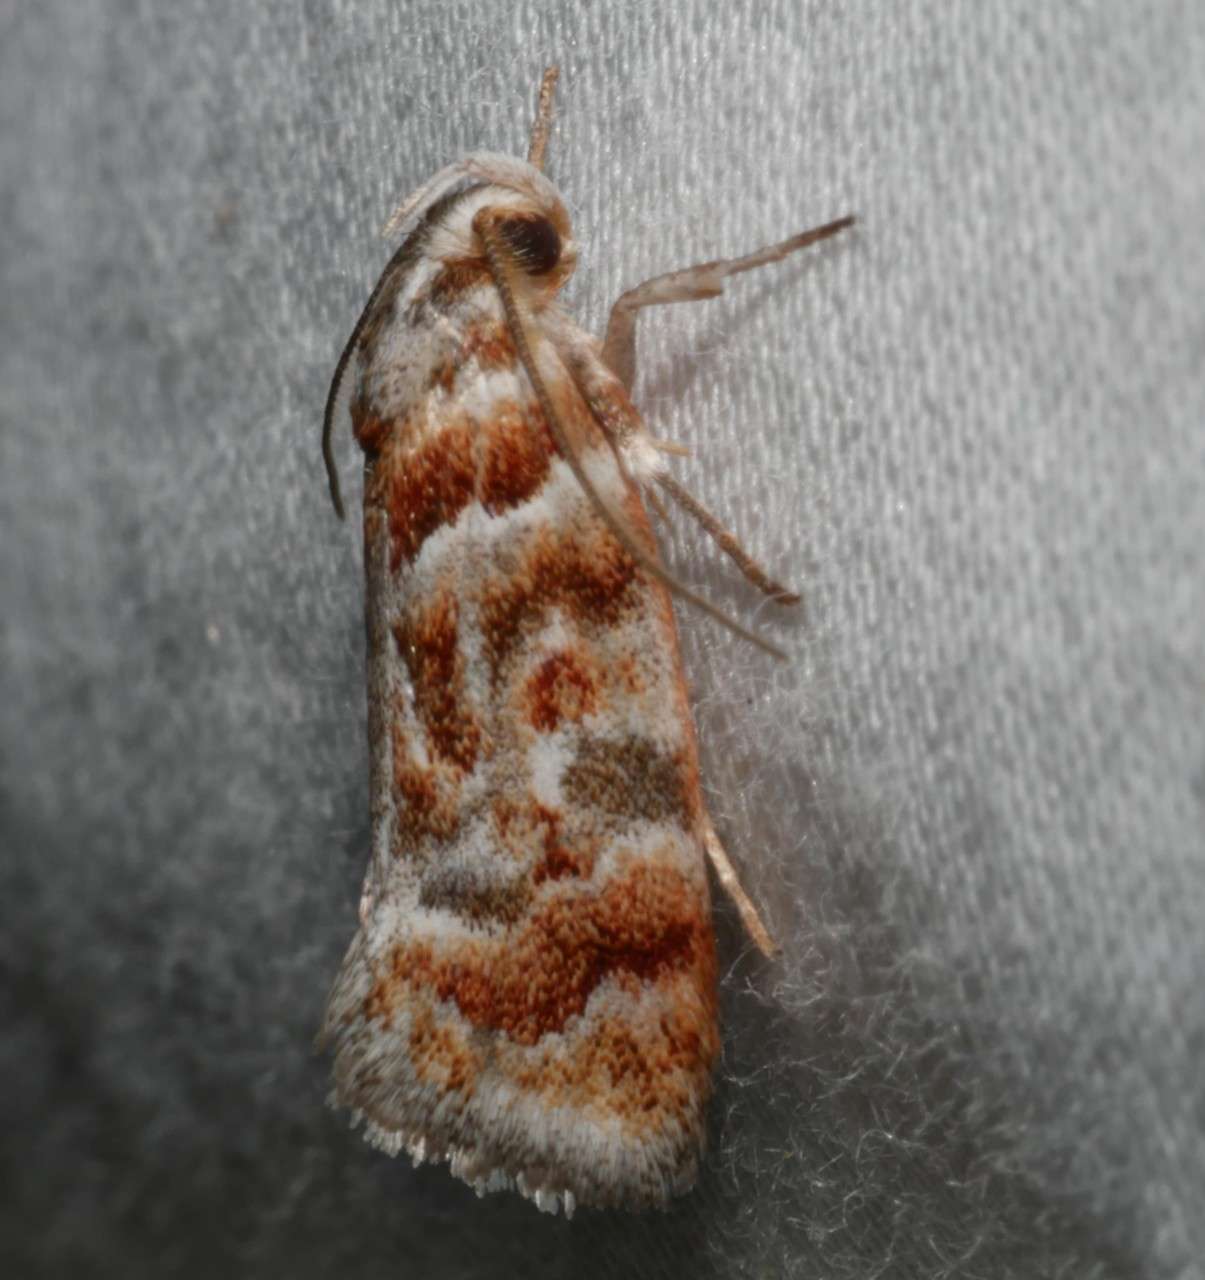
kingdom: Animalia
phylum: Arthropoda
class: Insecta
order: Lepidoptera
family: Oecophoridae
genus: Acmotoma
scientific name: Acmotoma magniferella
